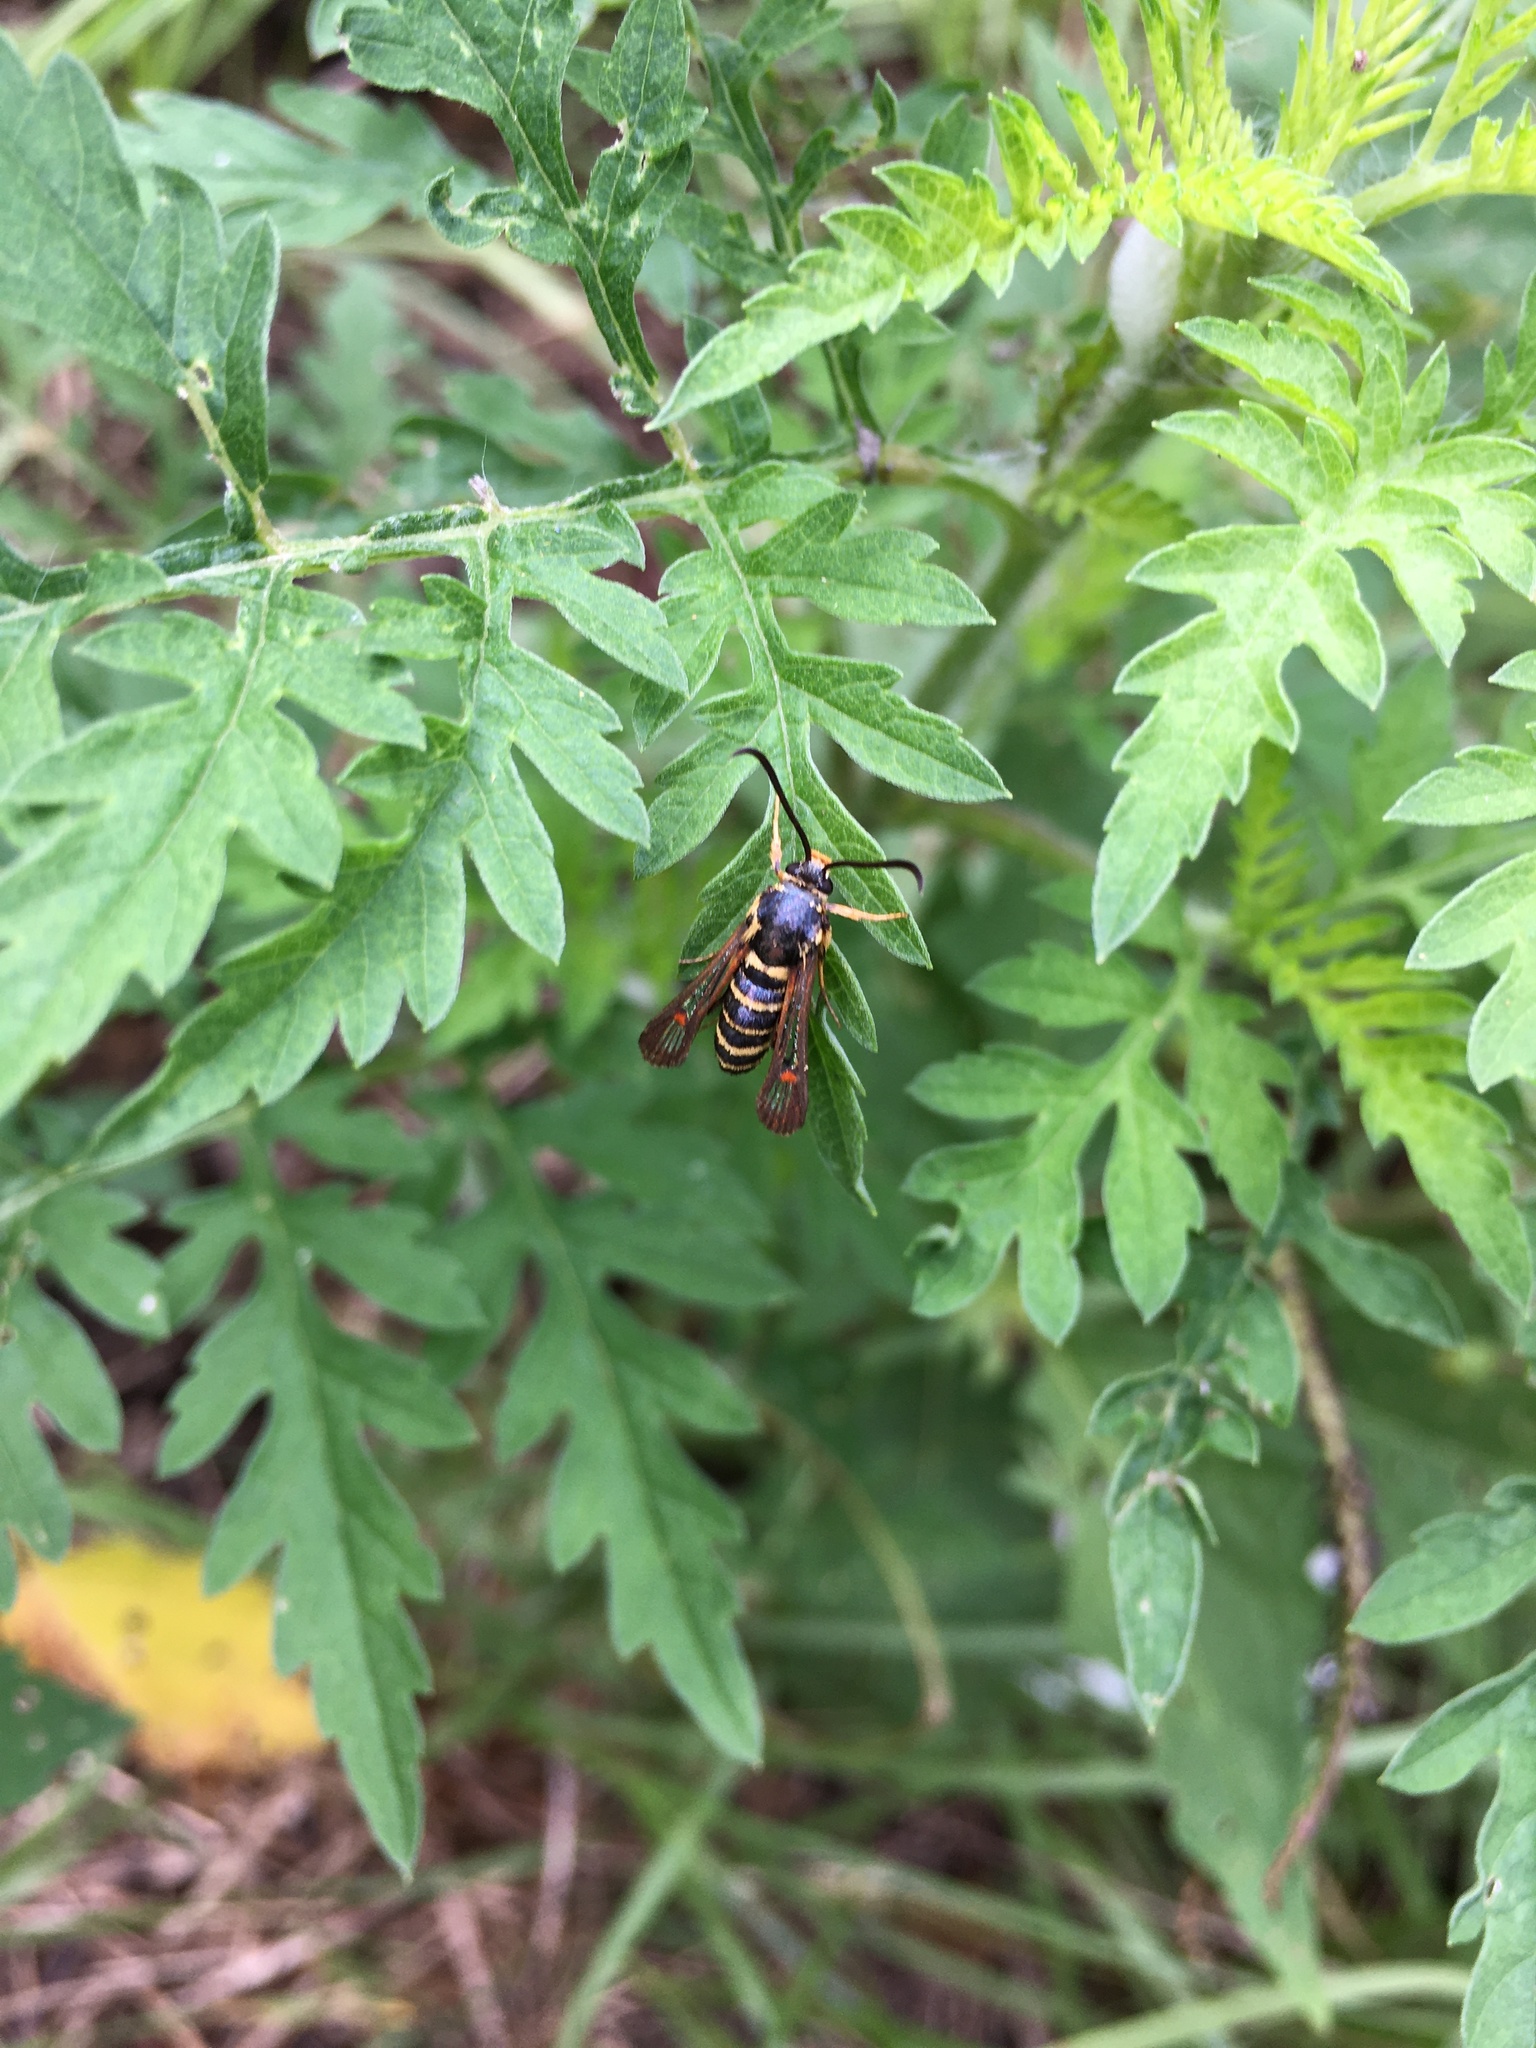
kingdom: Animalia
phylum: Arthropoda
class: Insecta
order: Lepidoptera
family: Sesiidae
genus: Synanthedon
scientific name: Synanthedon rileyana
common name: Riley's clearwing moth
